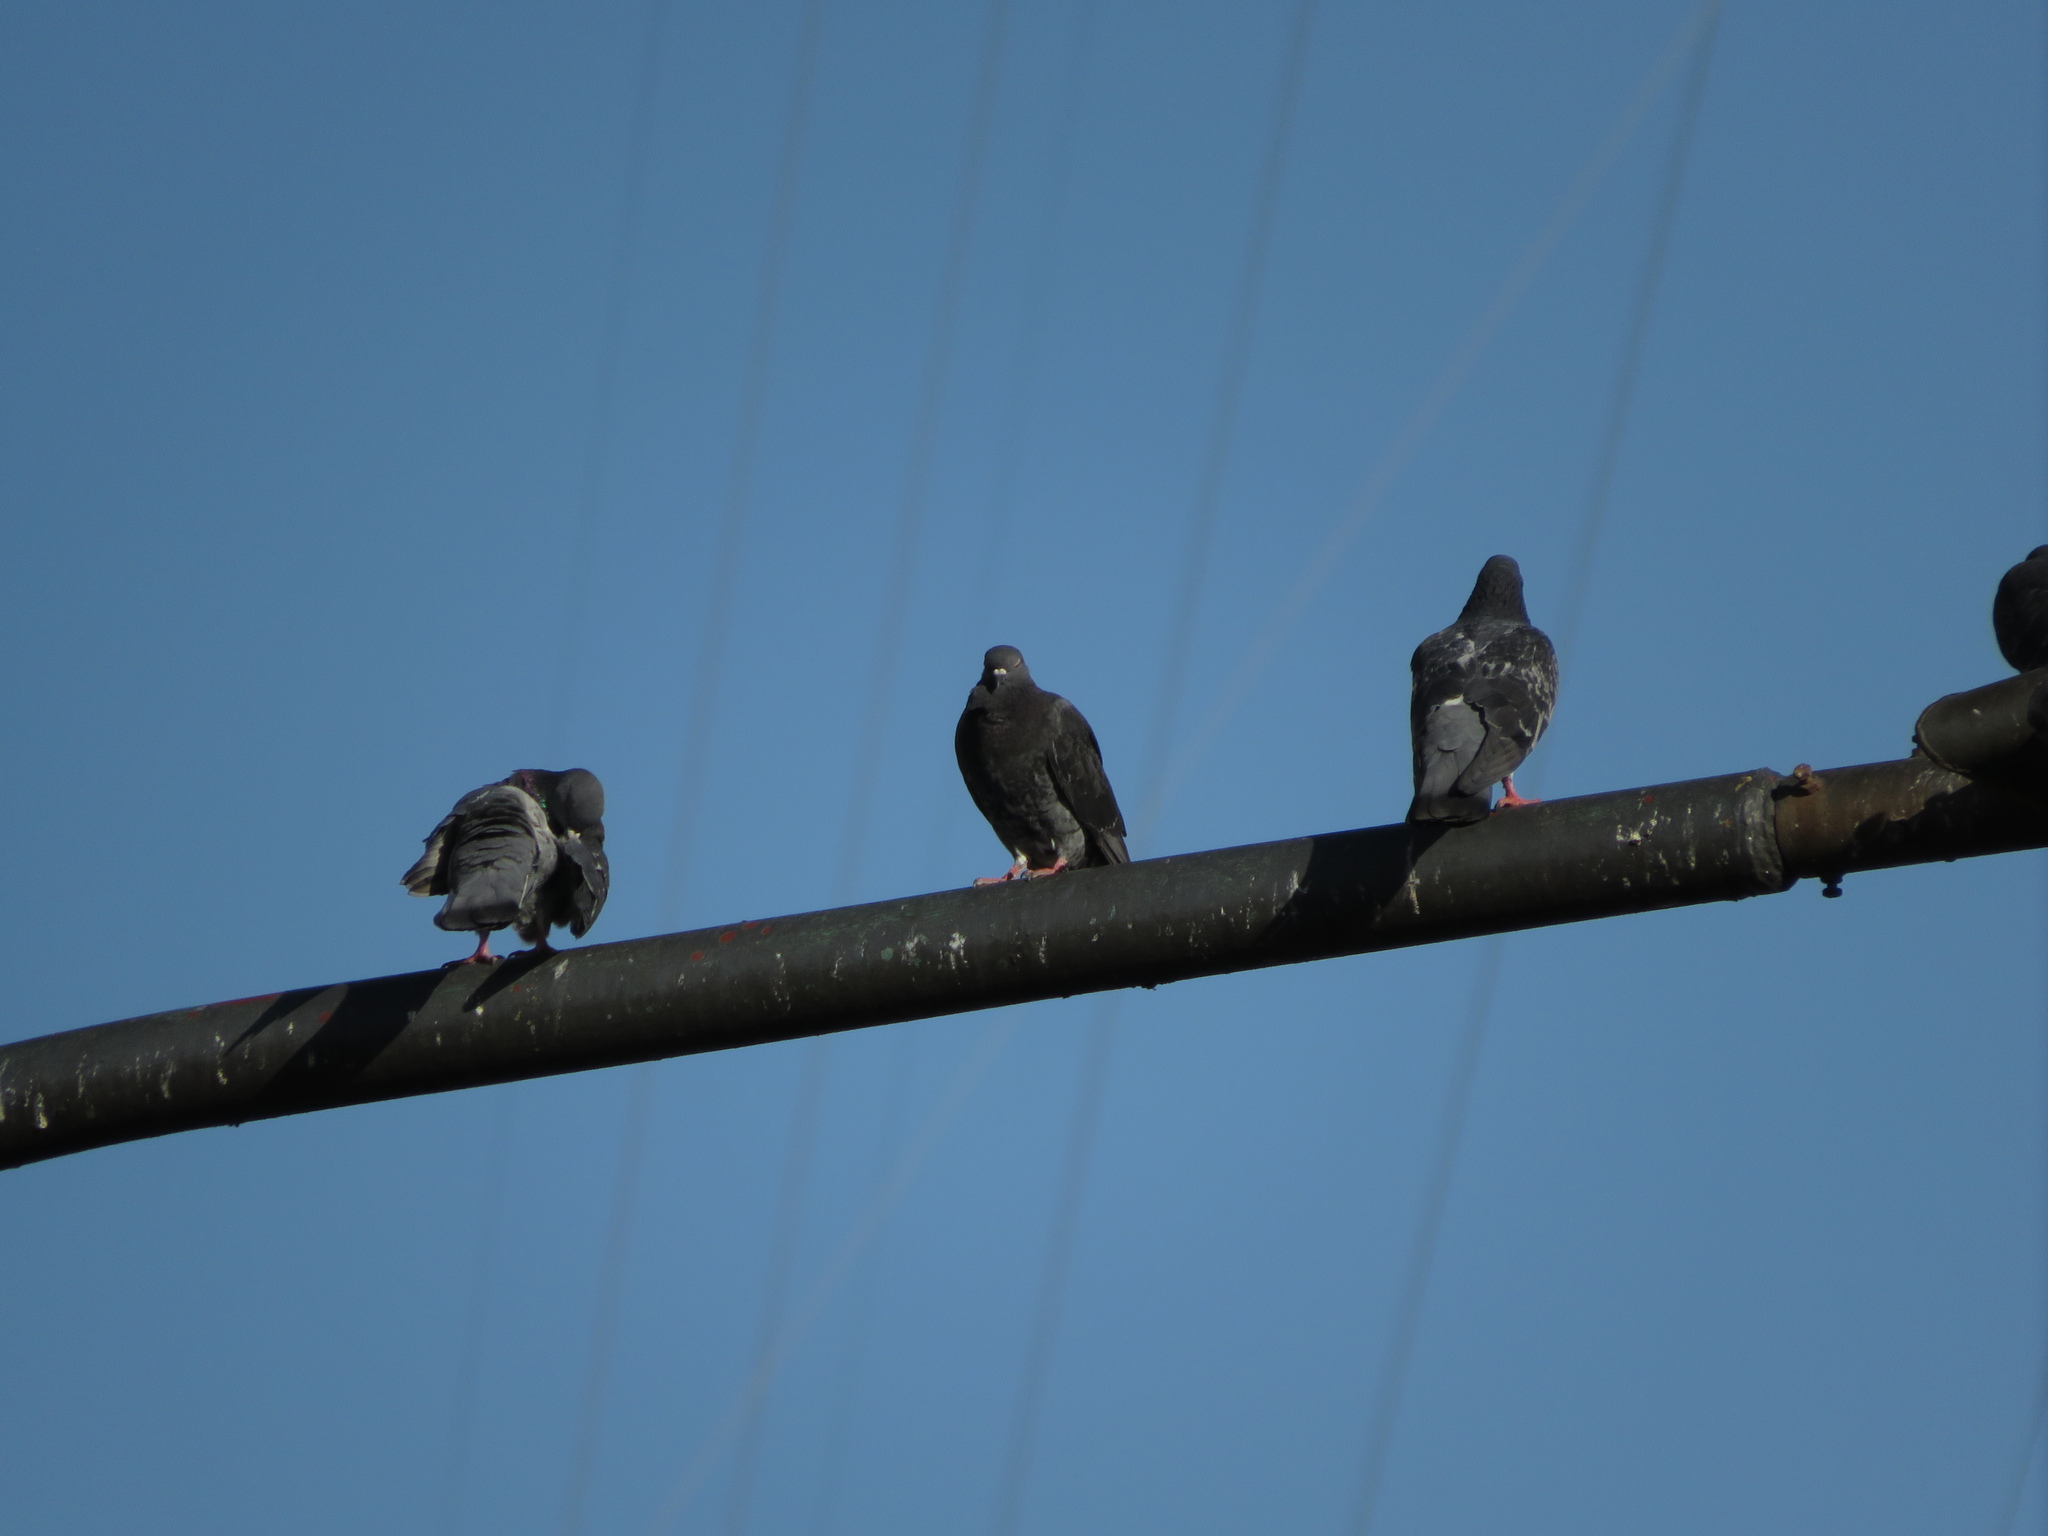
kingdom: Animalia
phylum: Chordata
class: Aves
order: Columbiformes
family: Columbidae
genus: Columba
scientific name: Columba livia
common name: Rock pigeon
